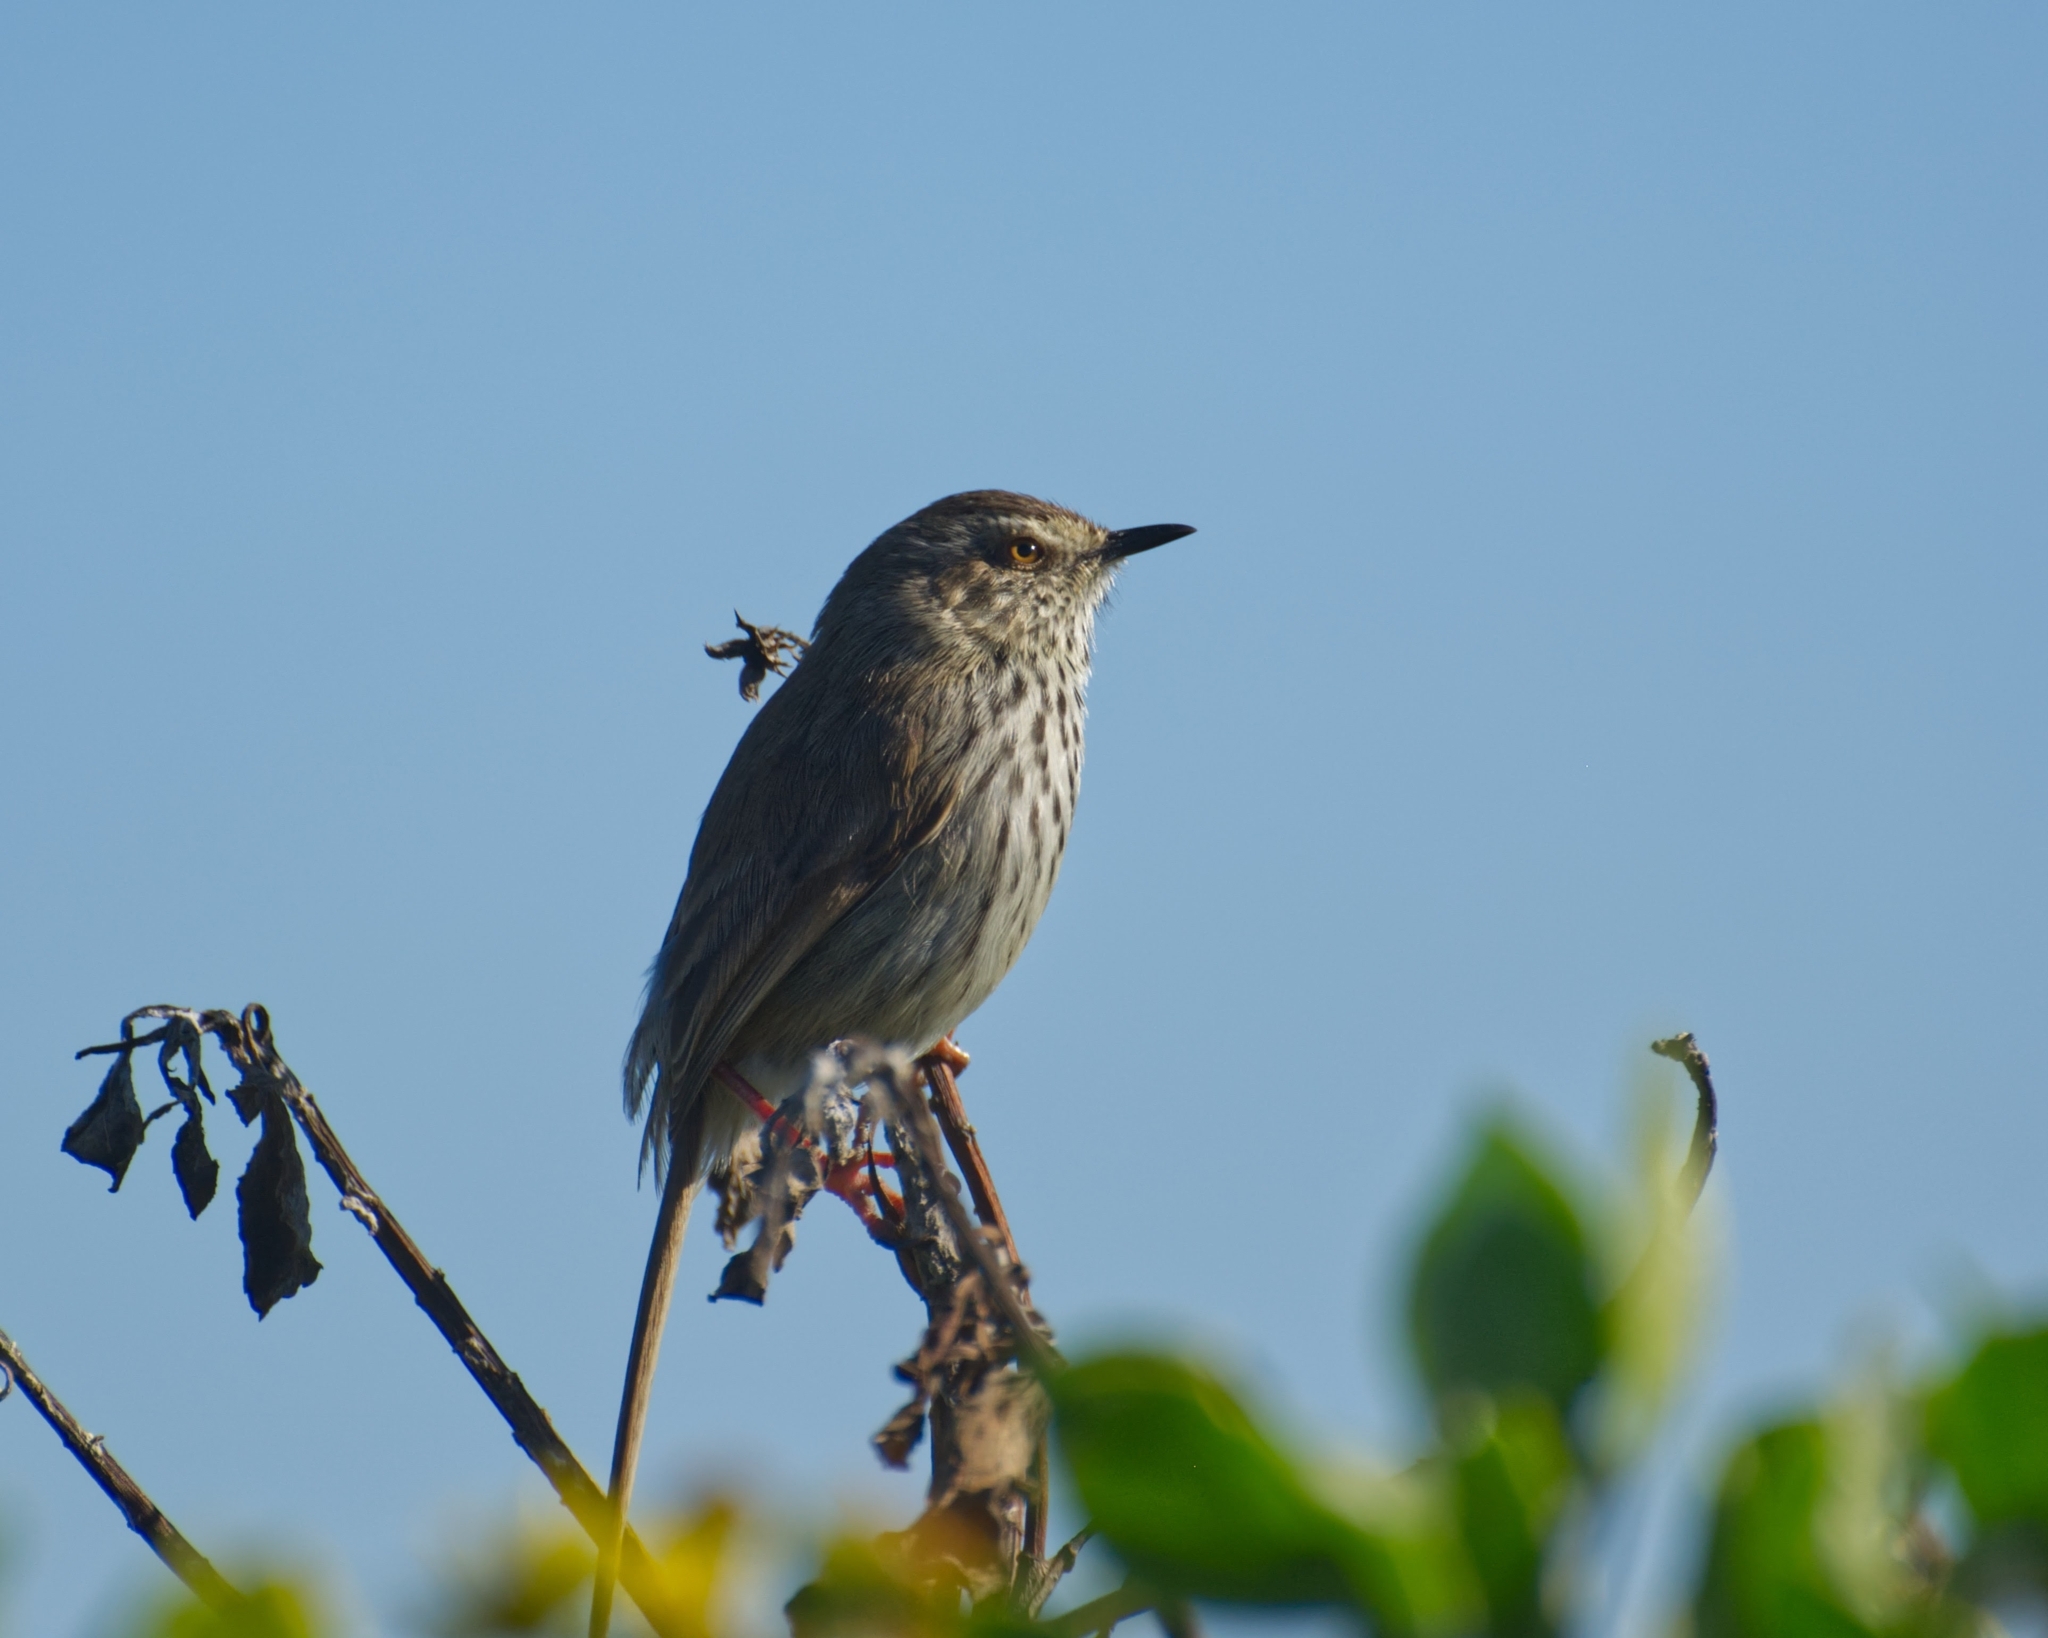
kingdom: Animalia
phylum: Chordata
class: Aves
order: Passeriformes
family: Cisticolidae
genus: Prinia
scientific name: Prinia maculosa
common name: Karoo prinia
